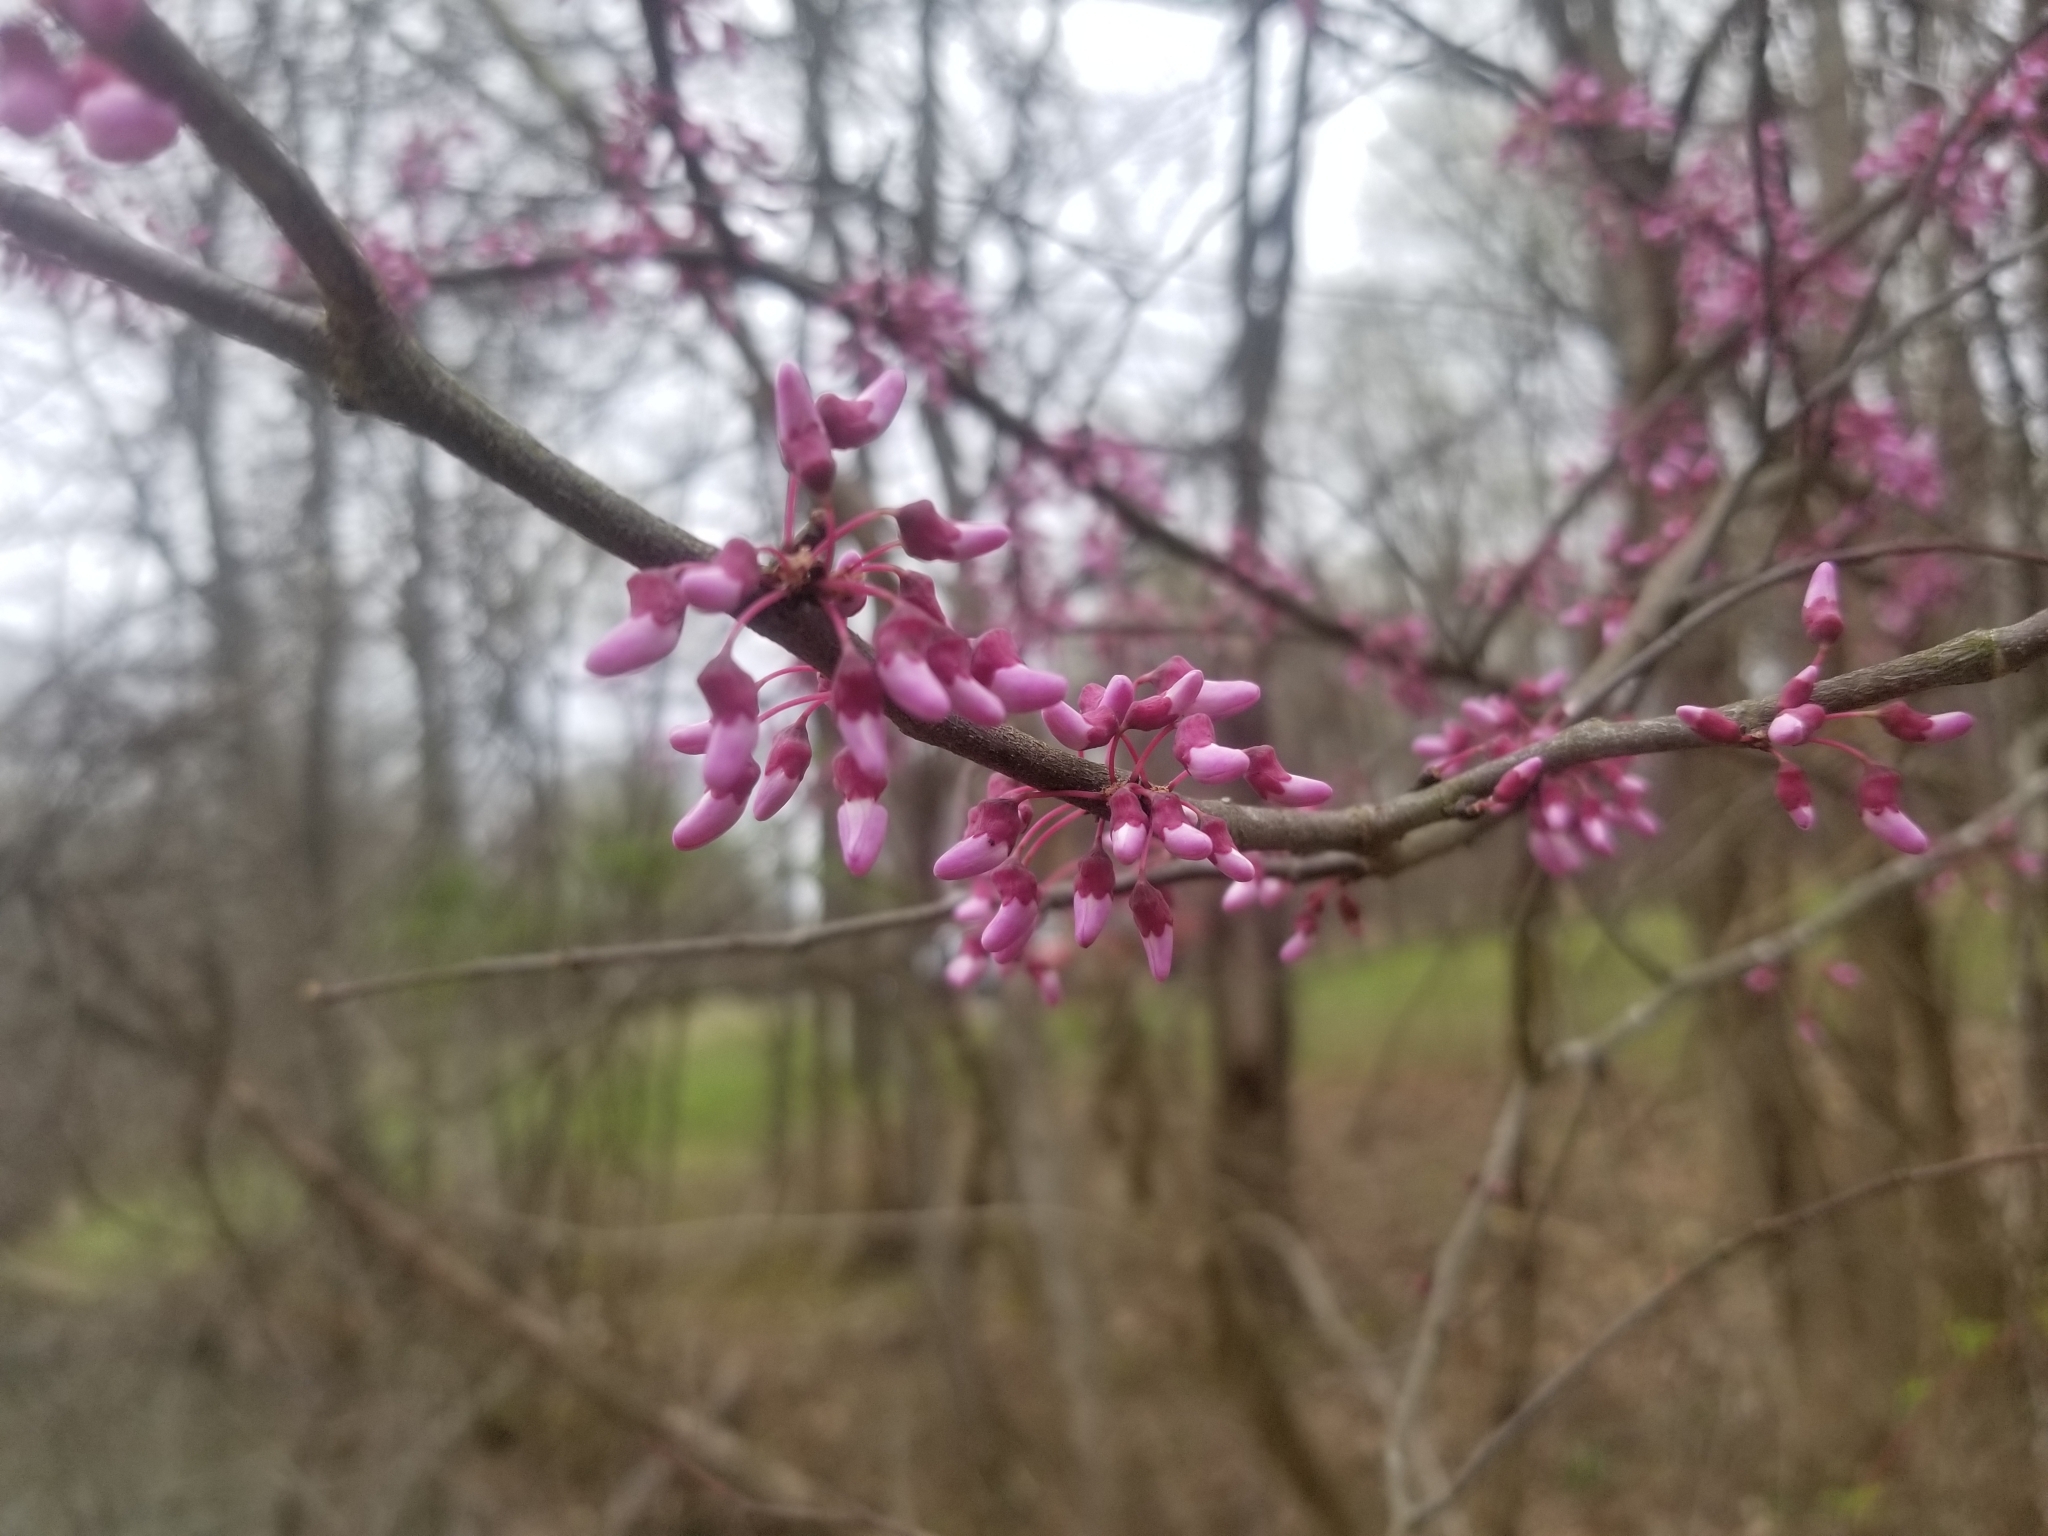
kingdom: Plantae
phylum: Tracheophyta
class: Magnoliopsida
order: Fabales
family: Fabaceae
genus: Cercis
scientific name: Cercis canadensis
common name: Eastern redbud
